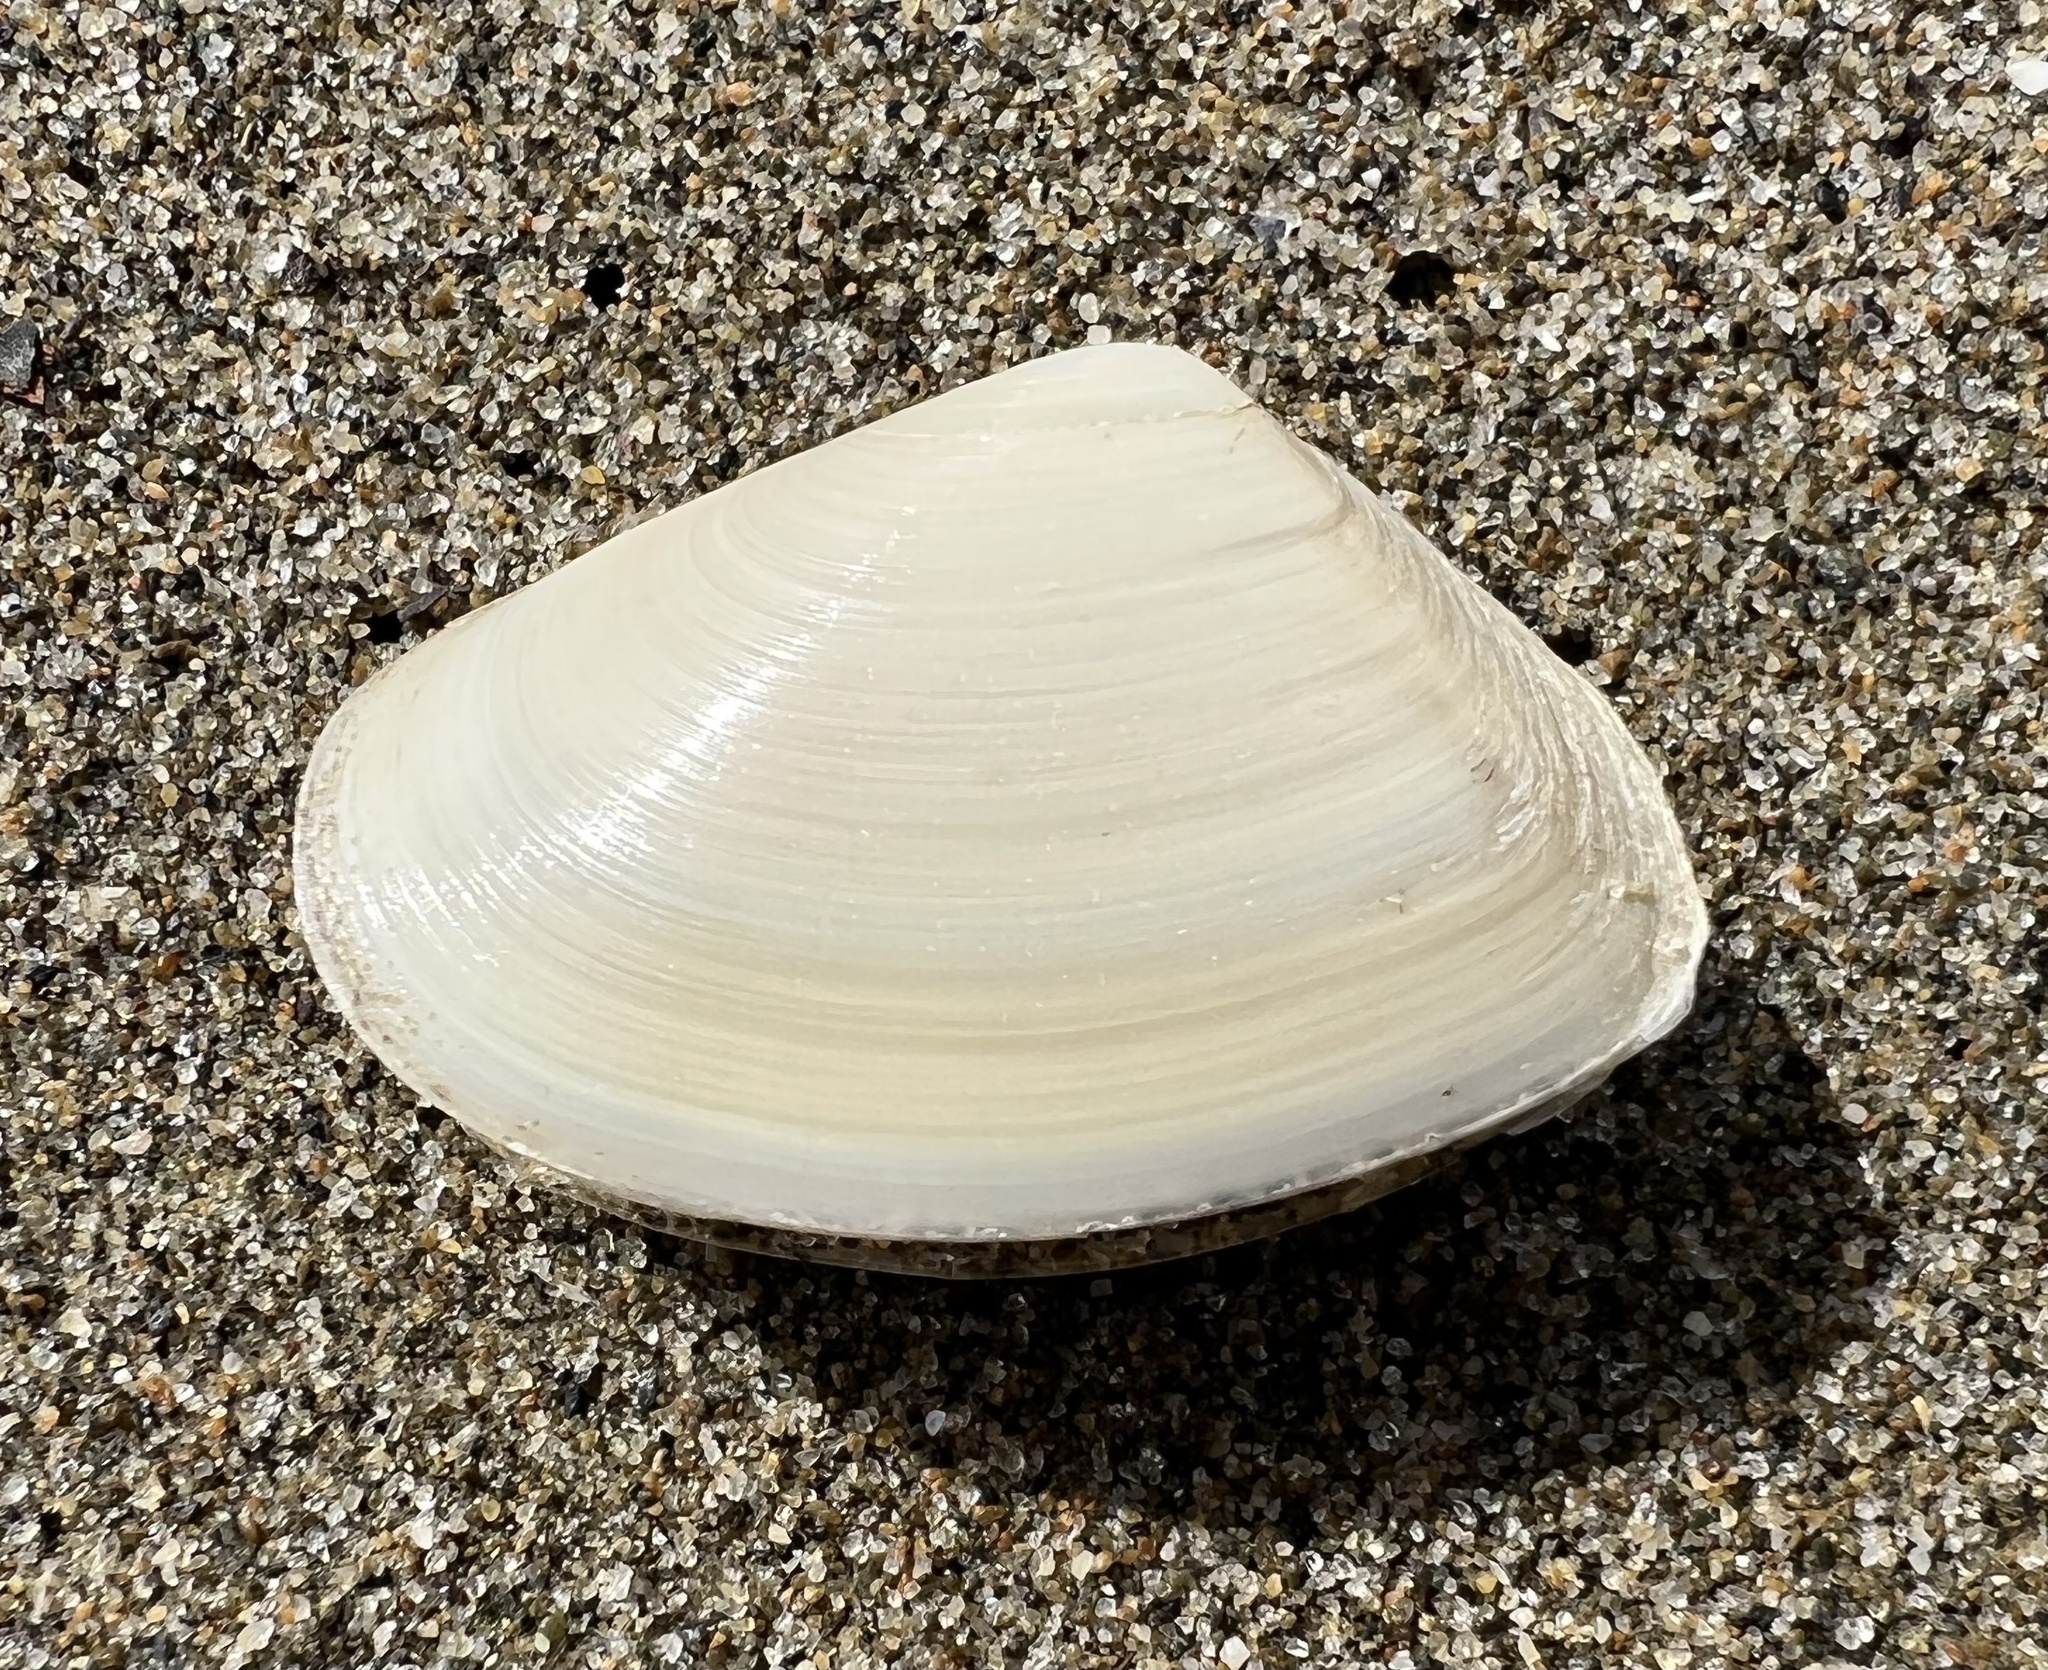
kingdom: Animalia
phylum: Mollusca
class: Bivalvia
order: Venerida
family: Mesodesmatidae
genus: Paphies
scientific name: Paphies donacina
